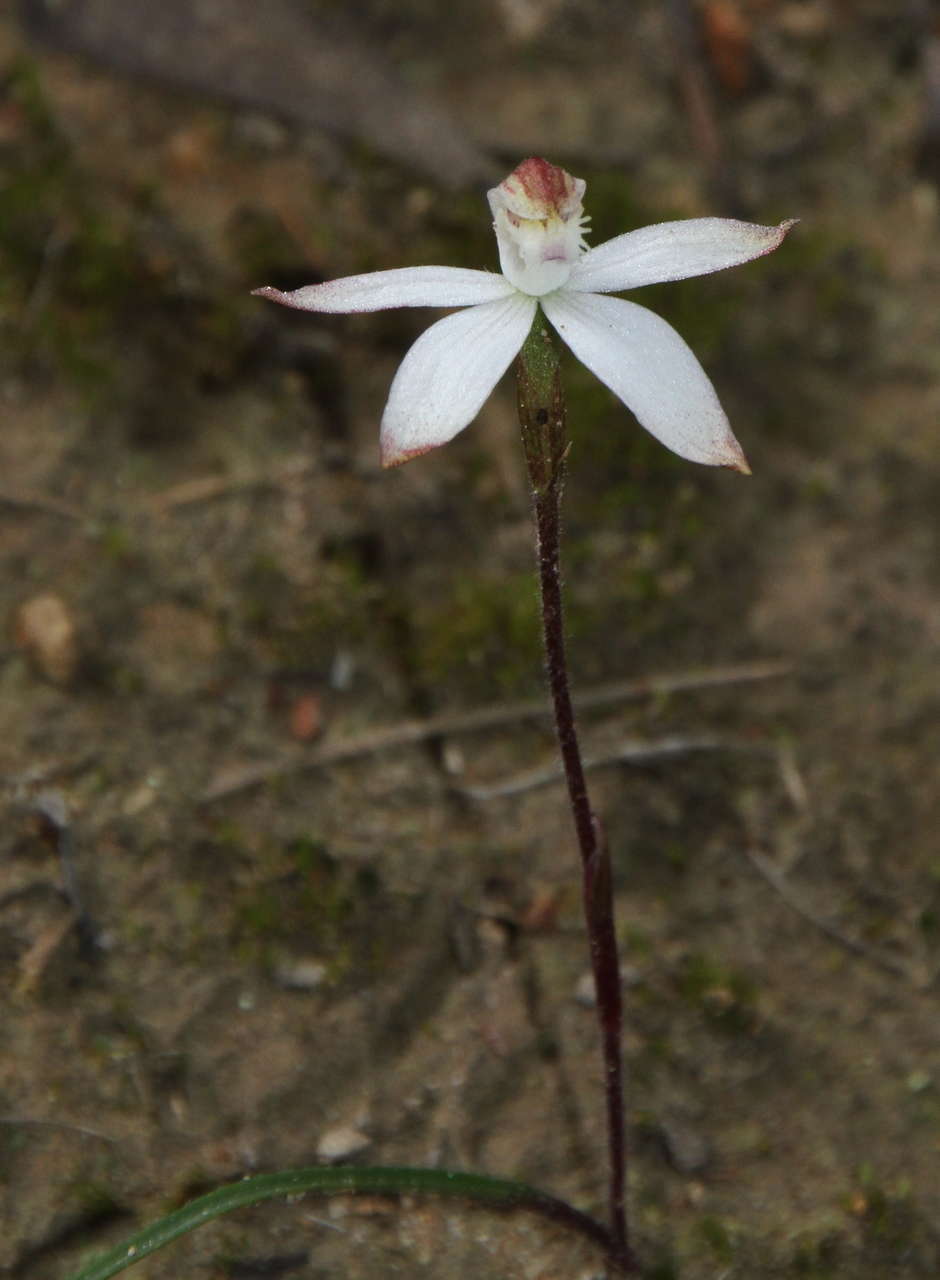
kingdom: Plantae
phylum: Tracheophyta
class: Liliopsida
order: Asparagales
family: Orchidaceae
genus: Caladenia
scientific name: Caladenia dimorpha
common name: Spicy caps
